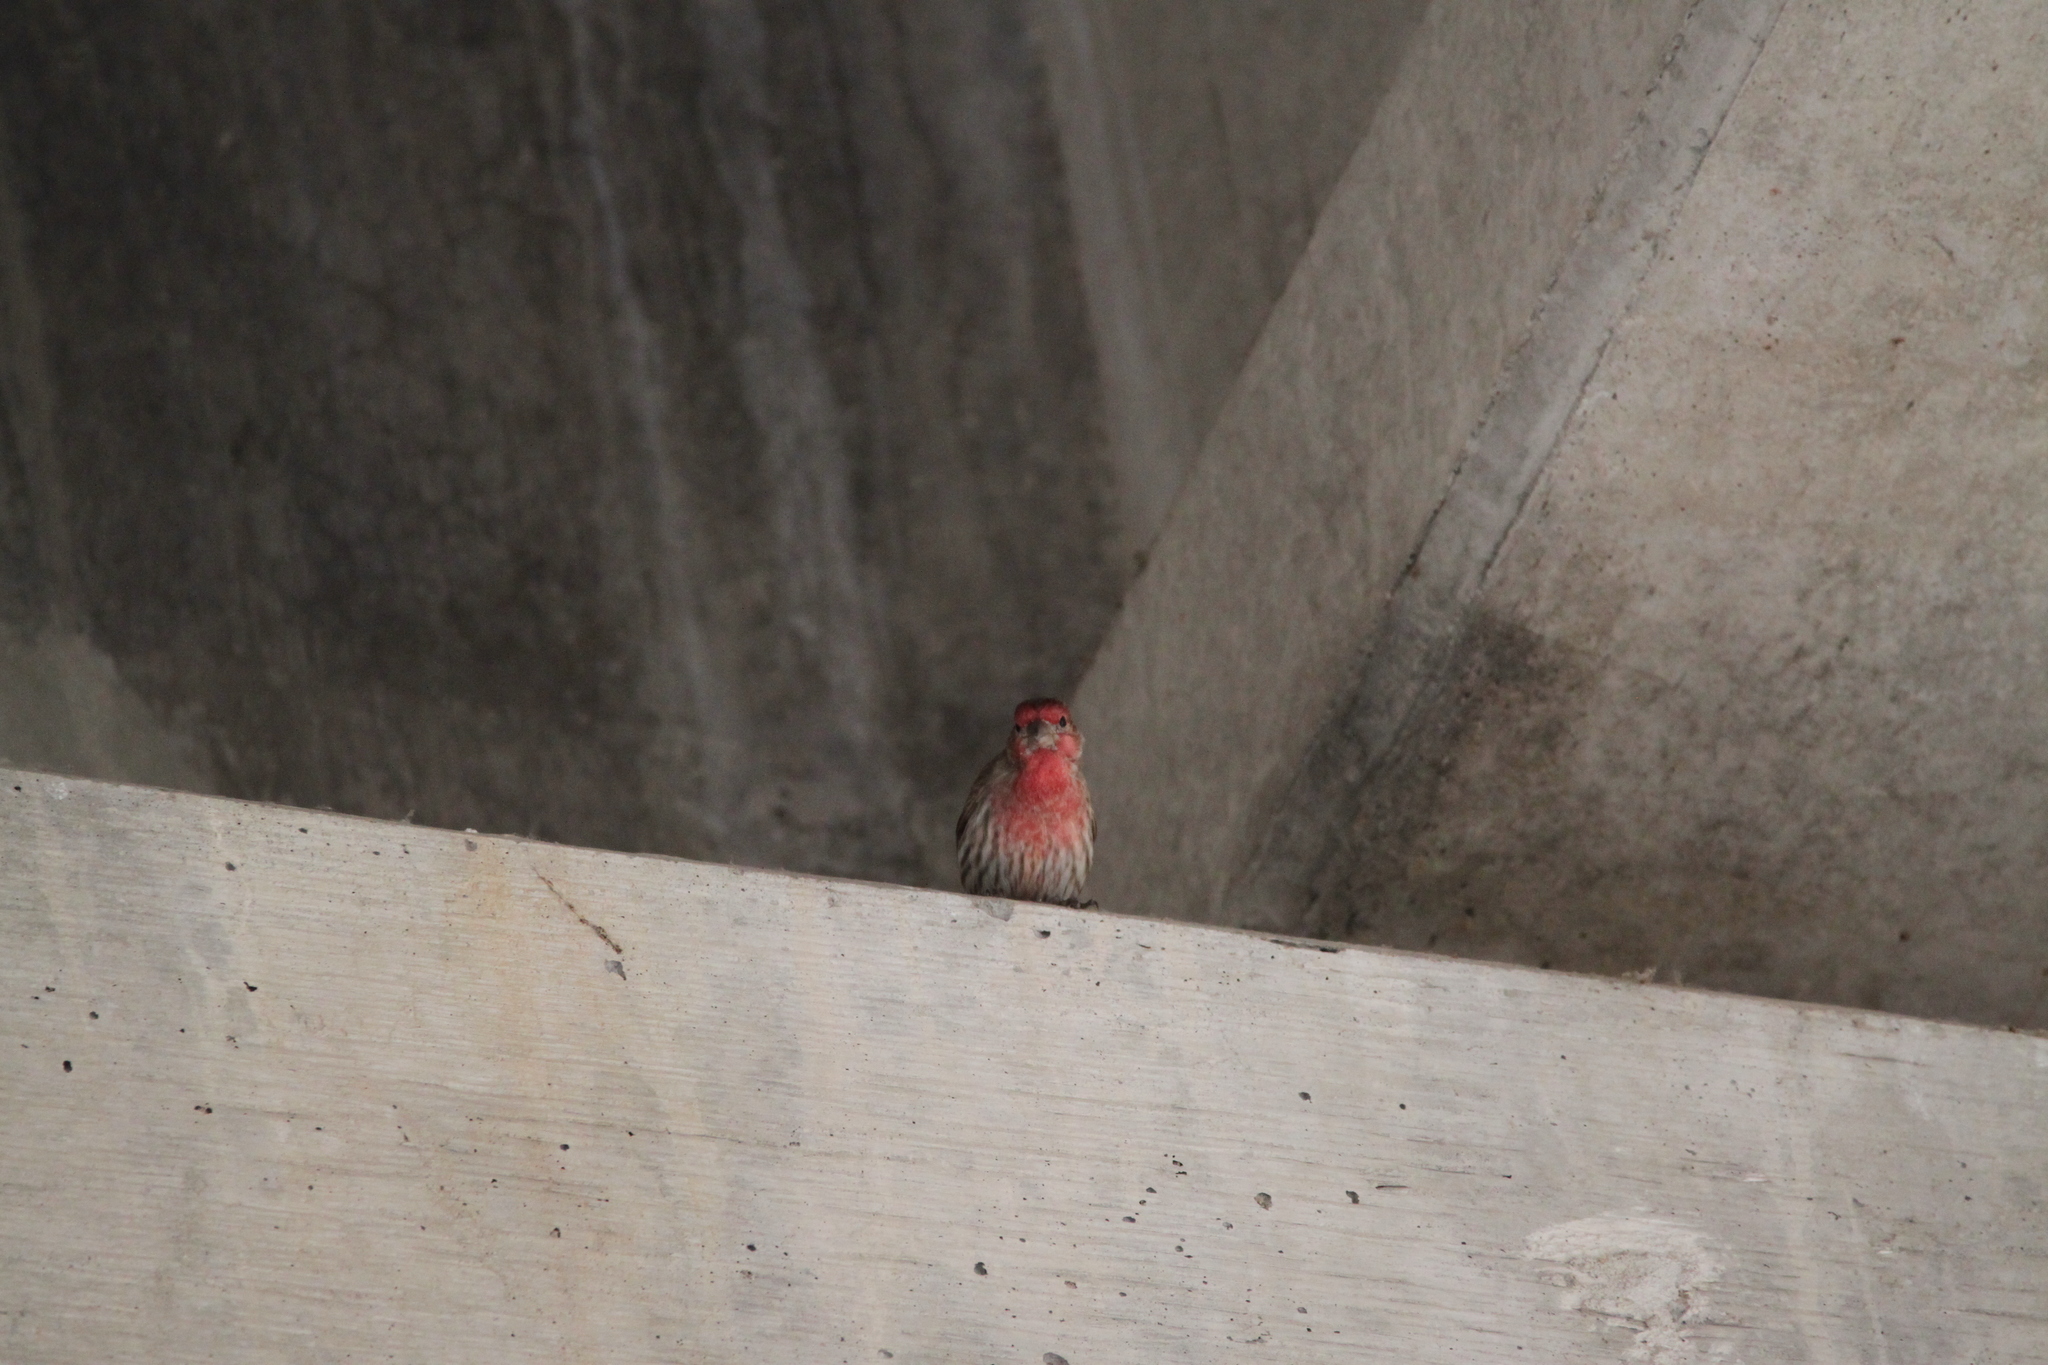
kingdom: Animalia
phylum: Chordata
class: Aves
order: Passeriformes
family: Fringillidae
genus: Haemorhous
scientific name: Haemorhous mexicanus
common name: House finch
